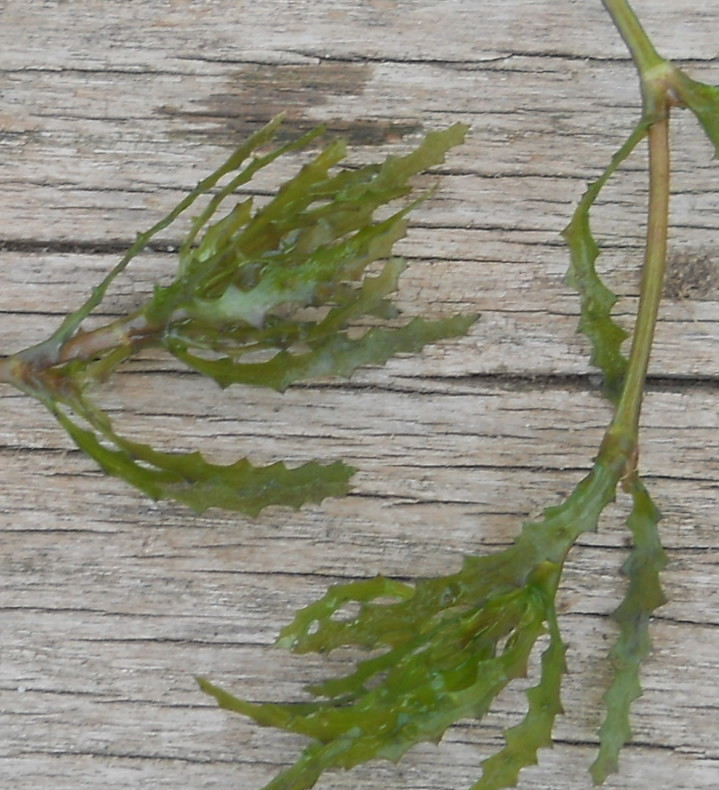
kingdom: Plantae
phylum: Tracheophyta
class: Liliopsida
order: Alismatales
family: Hydrocharitaceae
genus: Najas
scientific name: Najas marina
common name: Holly-leaved naiad
